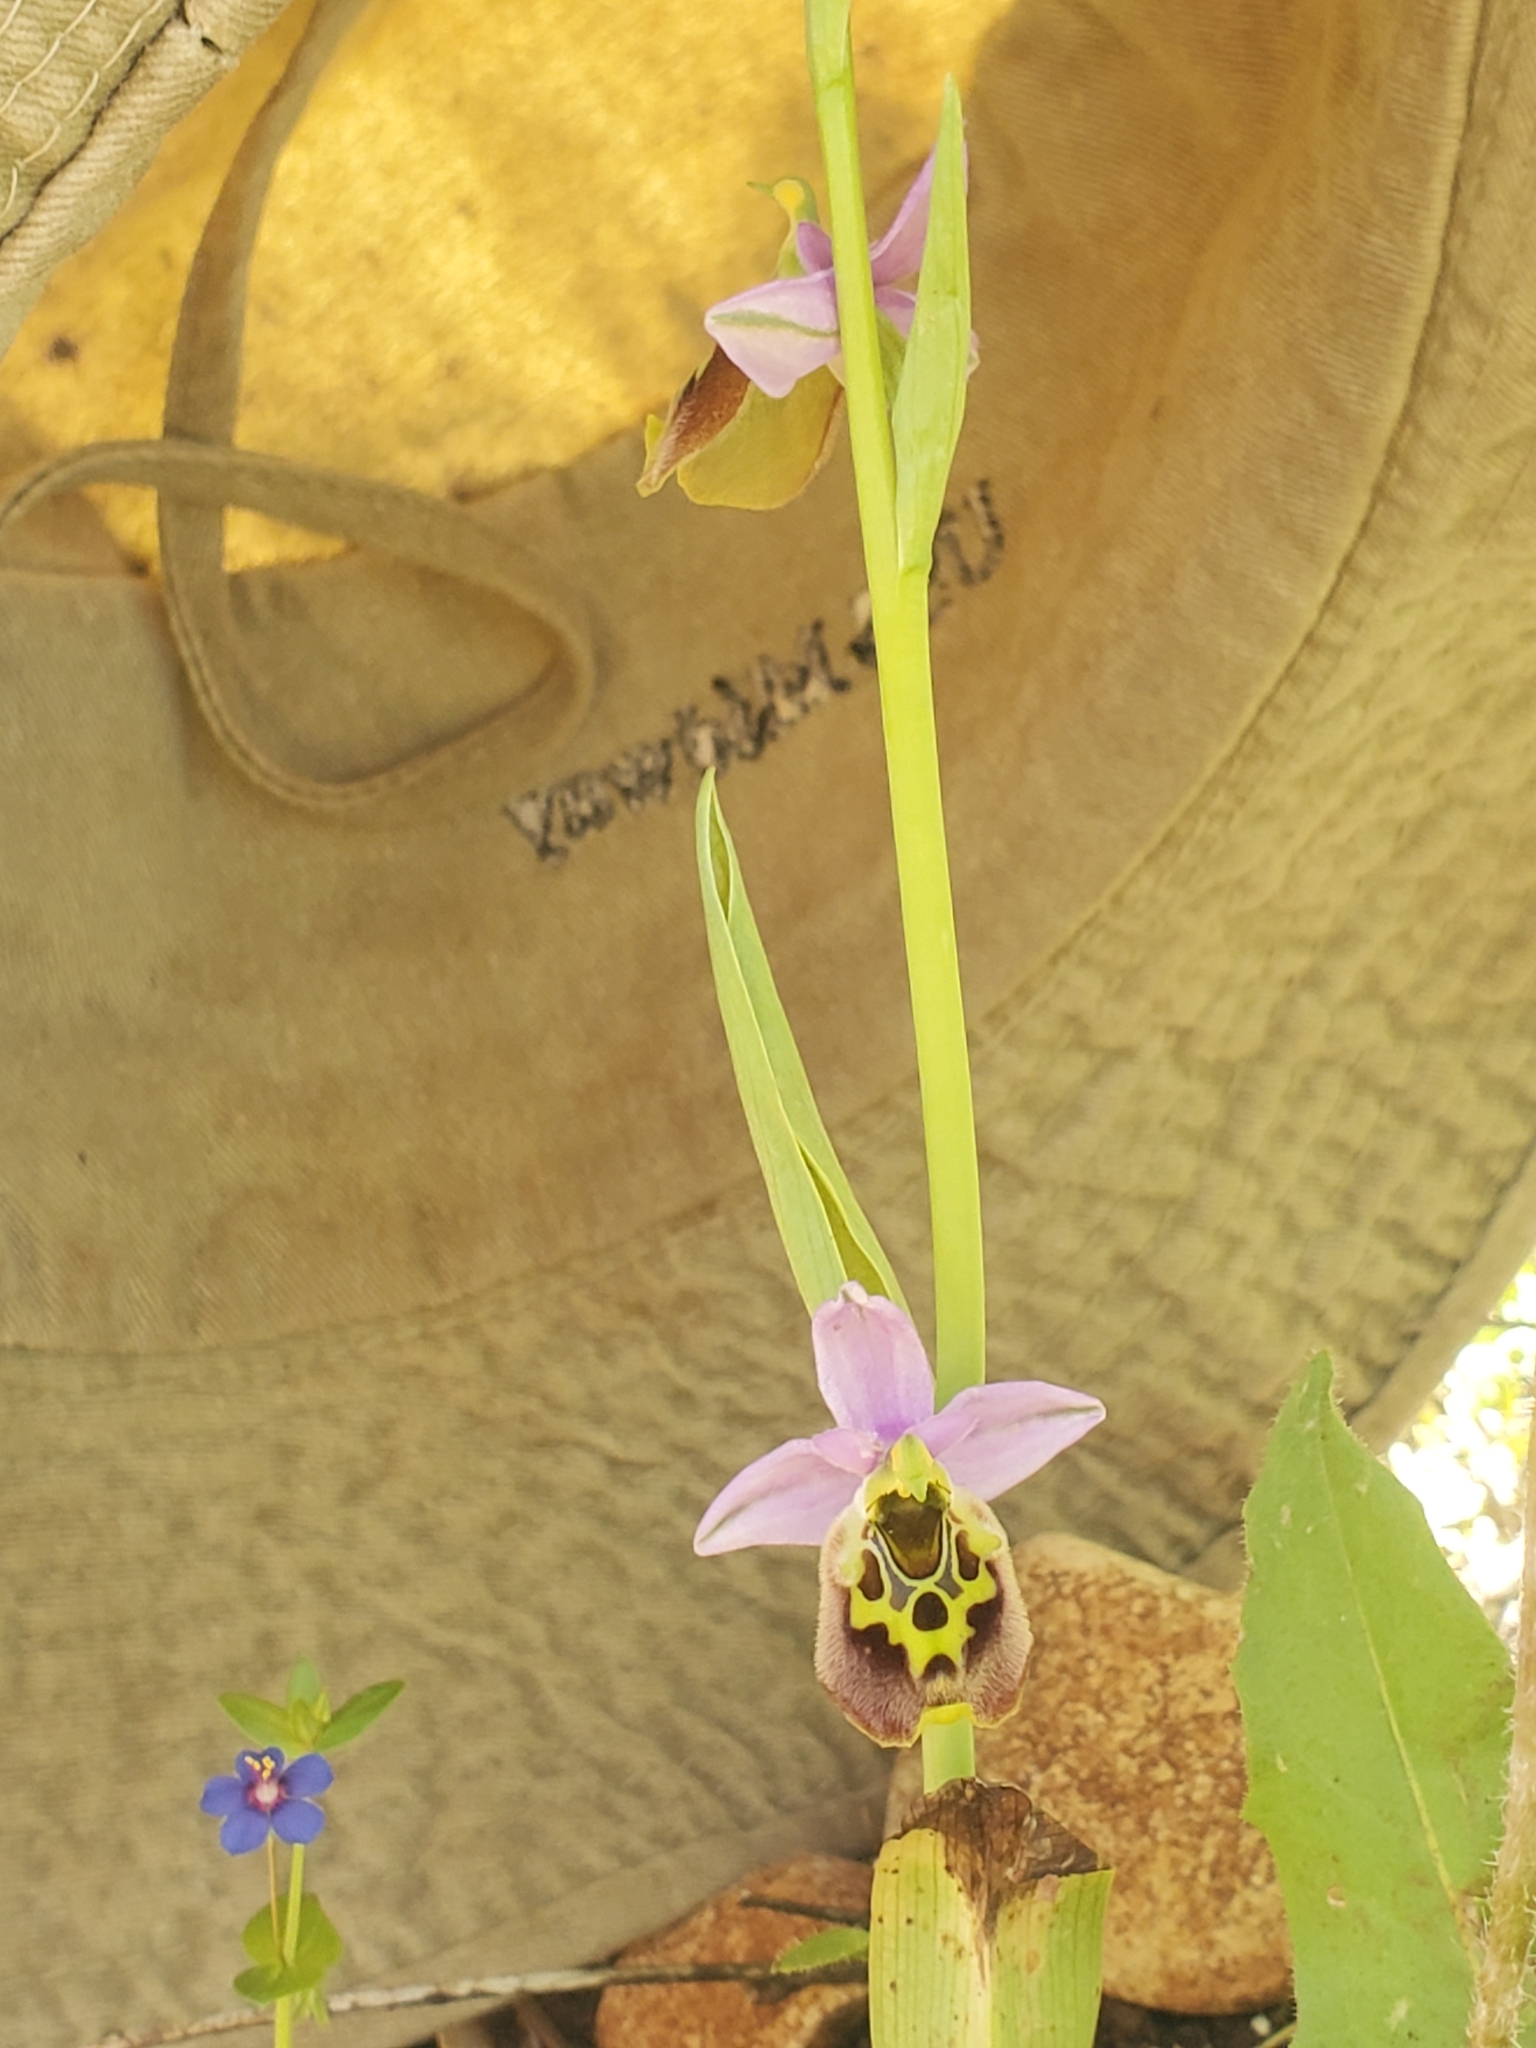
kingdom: Plantae
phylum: Tracheophyta
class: Liliopsida
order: Asparagales
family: Orchidaceae
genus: Ophrys
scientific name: Ophrys holosericea
